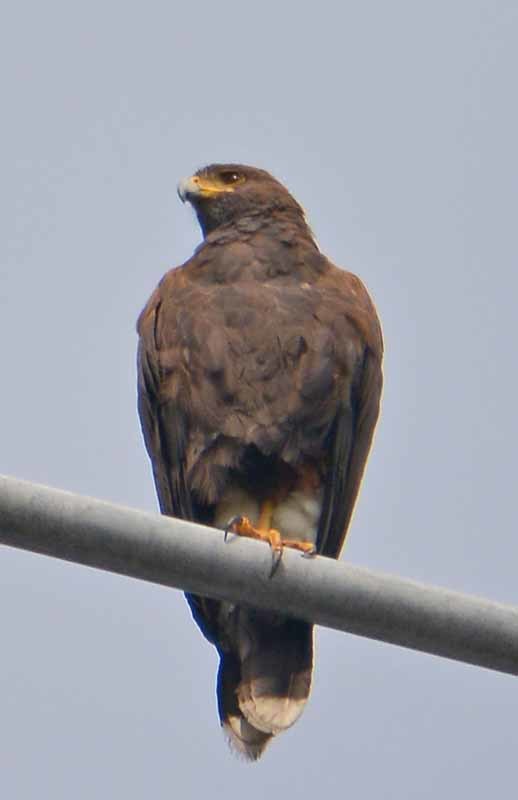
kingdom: Animalia
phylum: Chordata
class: Aves
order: Accipitriformes
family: Accipitridae
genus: Parabuteo
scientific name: Parabuteo unicinctus
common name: Harris's hawk
